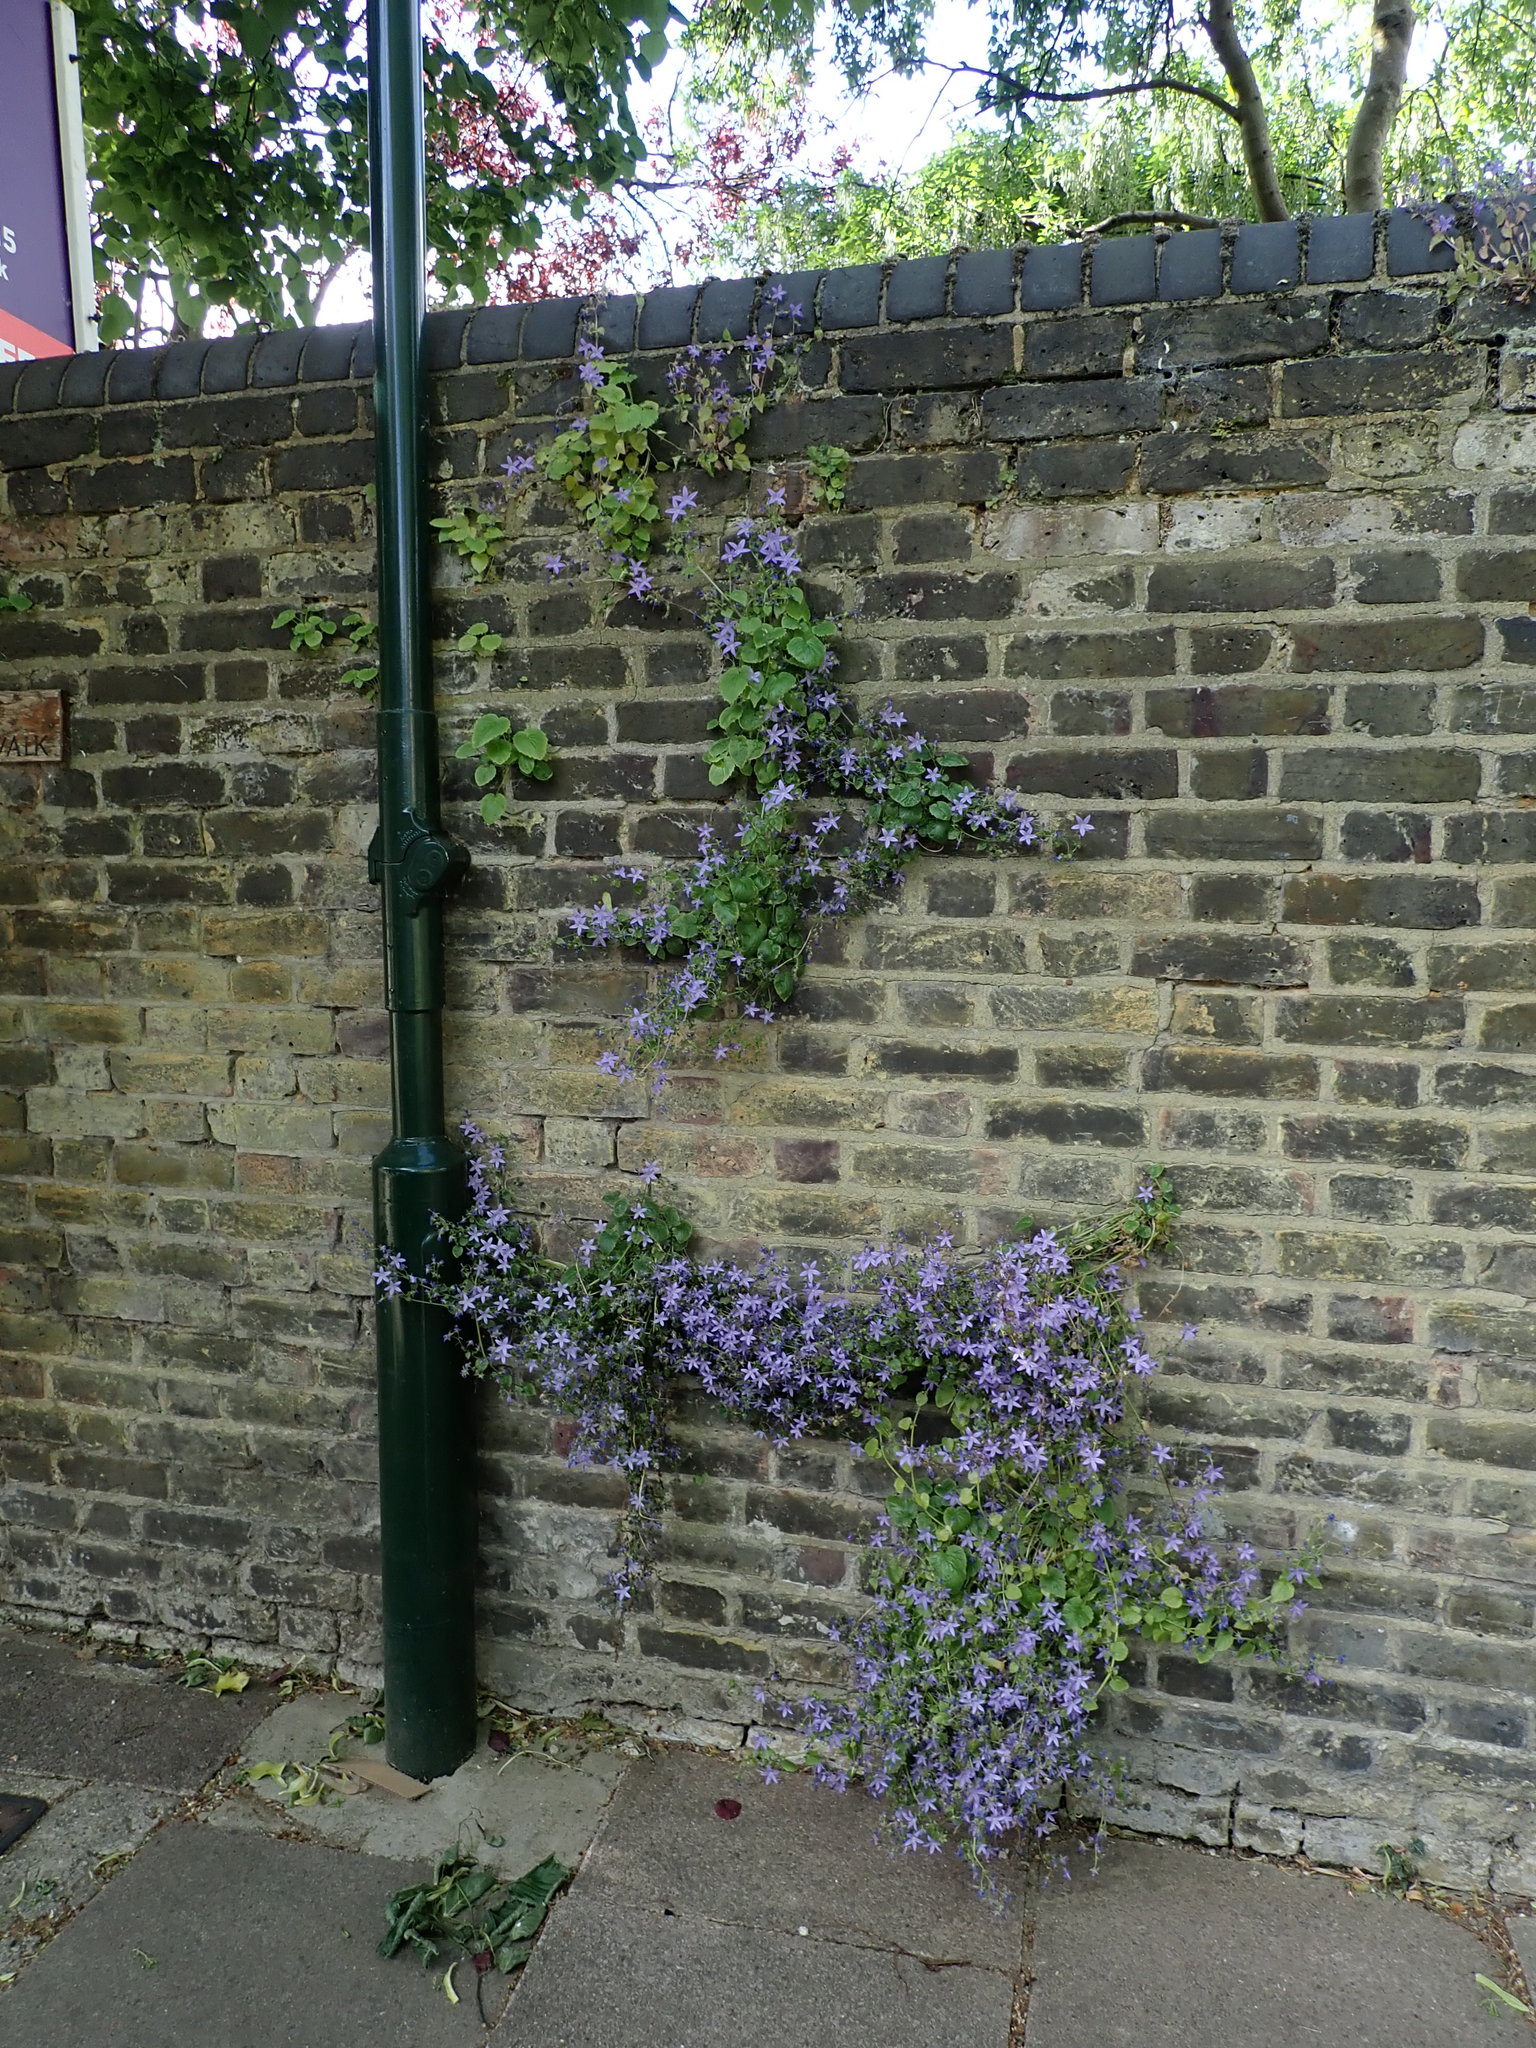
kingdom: Plantae
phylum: Tracheophyta
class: Magnoliopsida
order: Asterales
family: Campanulaceae
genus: Campanula
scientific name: Campanula poscharskyana
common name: Trailing bellflower
